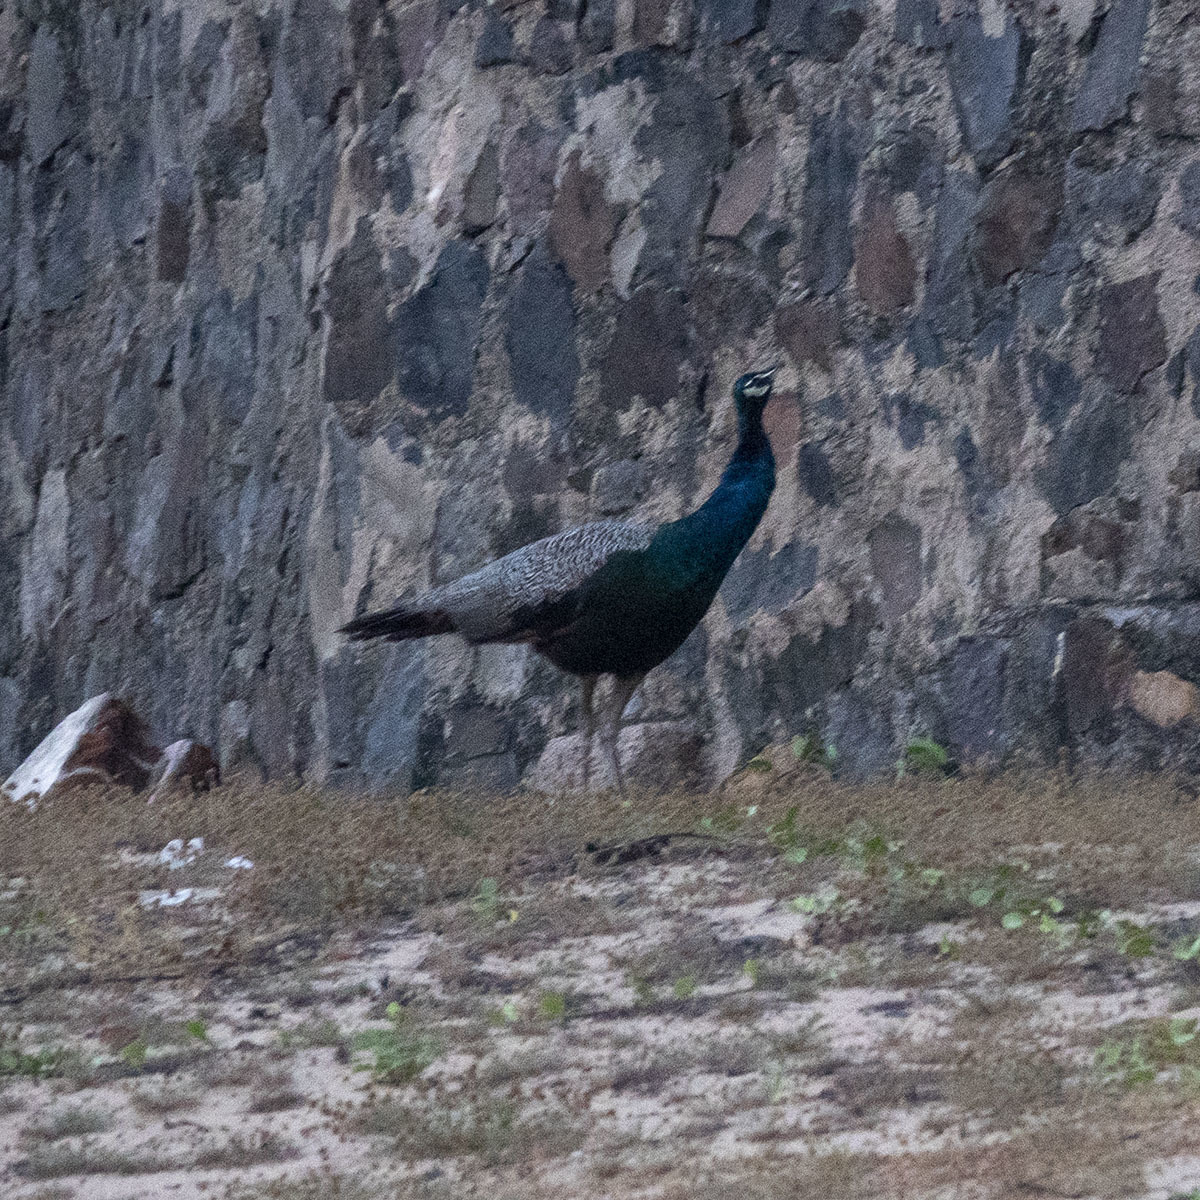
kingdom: Animalia
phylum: Chordata
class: Aves
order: Galliformes
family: Phasianidae
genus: Pavo
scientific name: Pavo cristatus
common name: Indian peafowl
